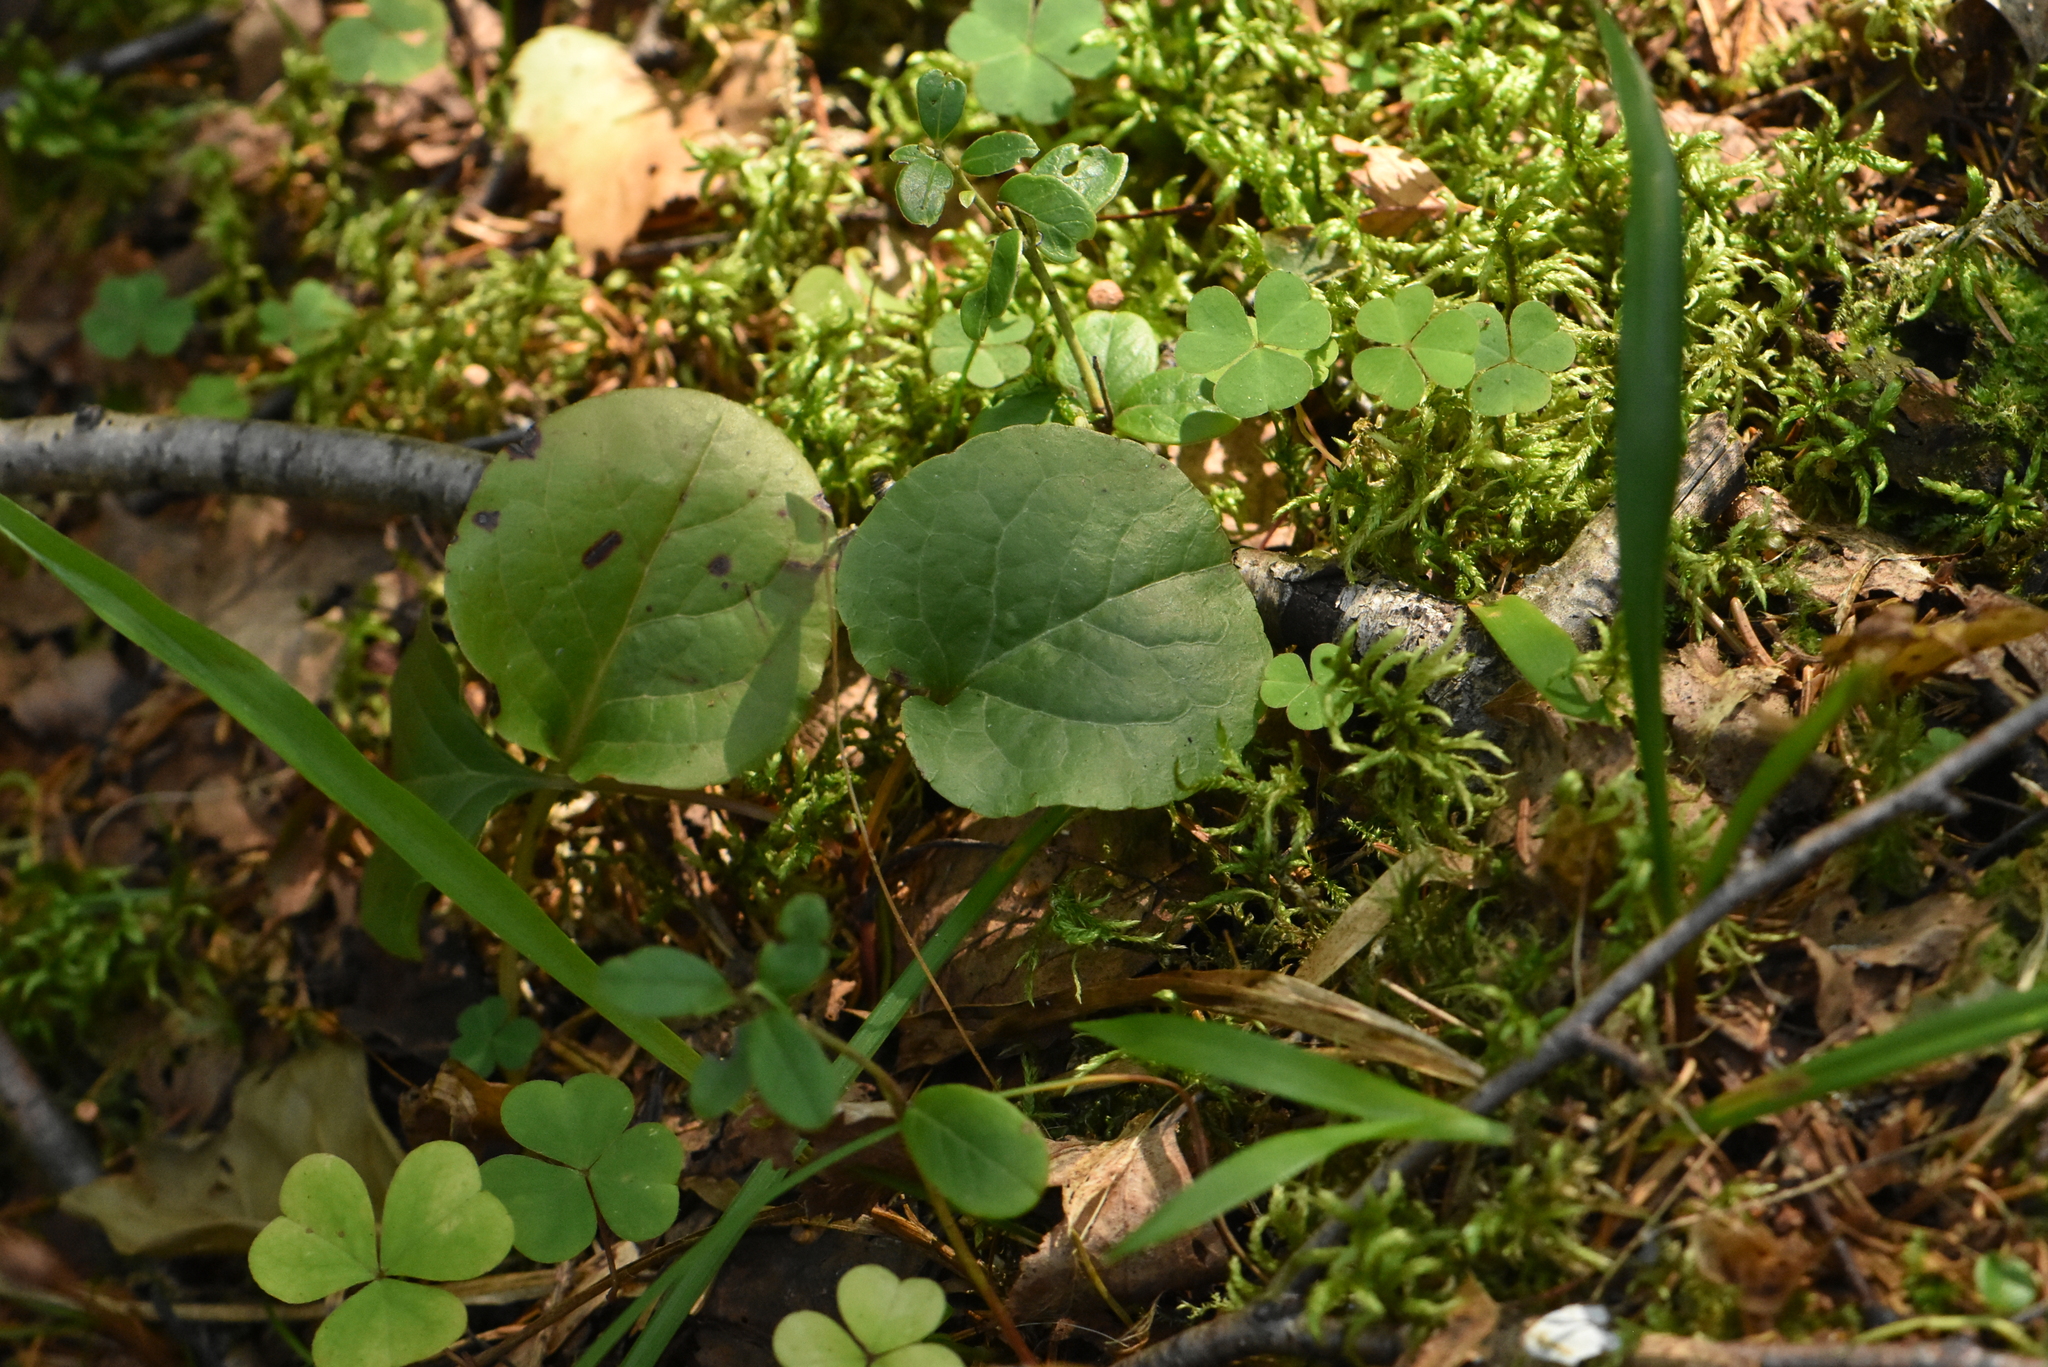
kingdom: Plantae
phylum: Tracheophyta
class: Magnoliopsida
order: Ericales
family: Ericaceae
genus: Pyrola
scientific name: Pyrola minor
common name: Common wintergreen
